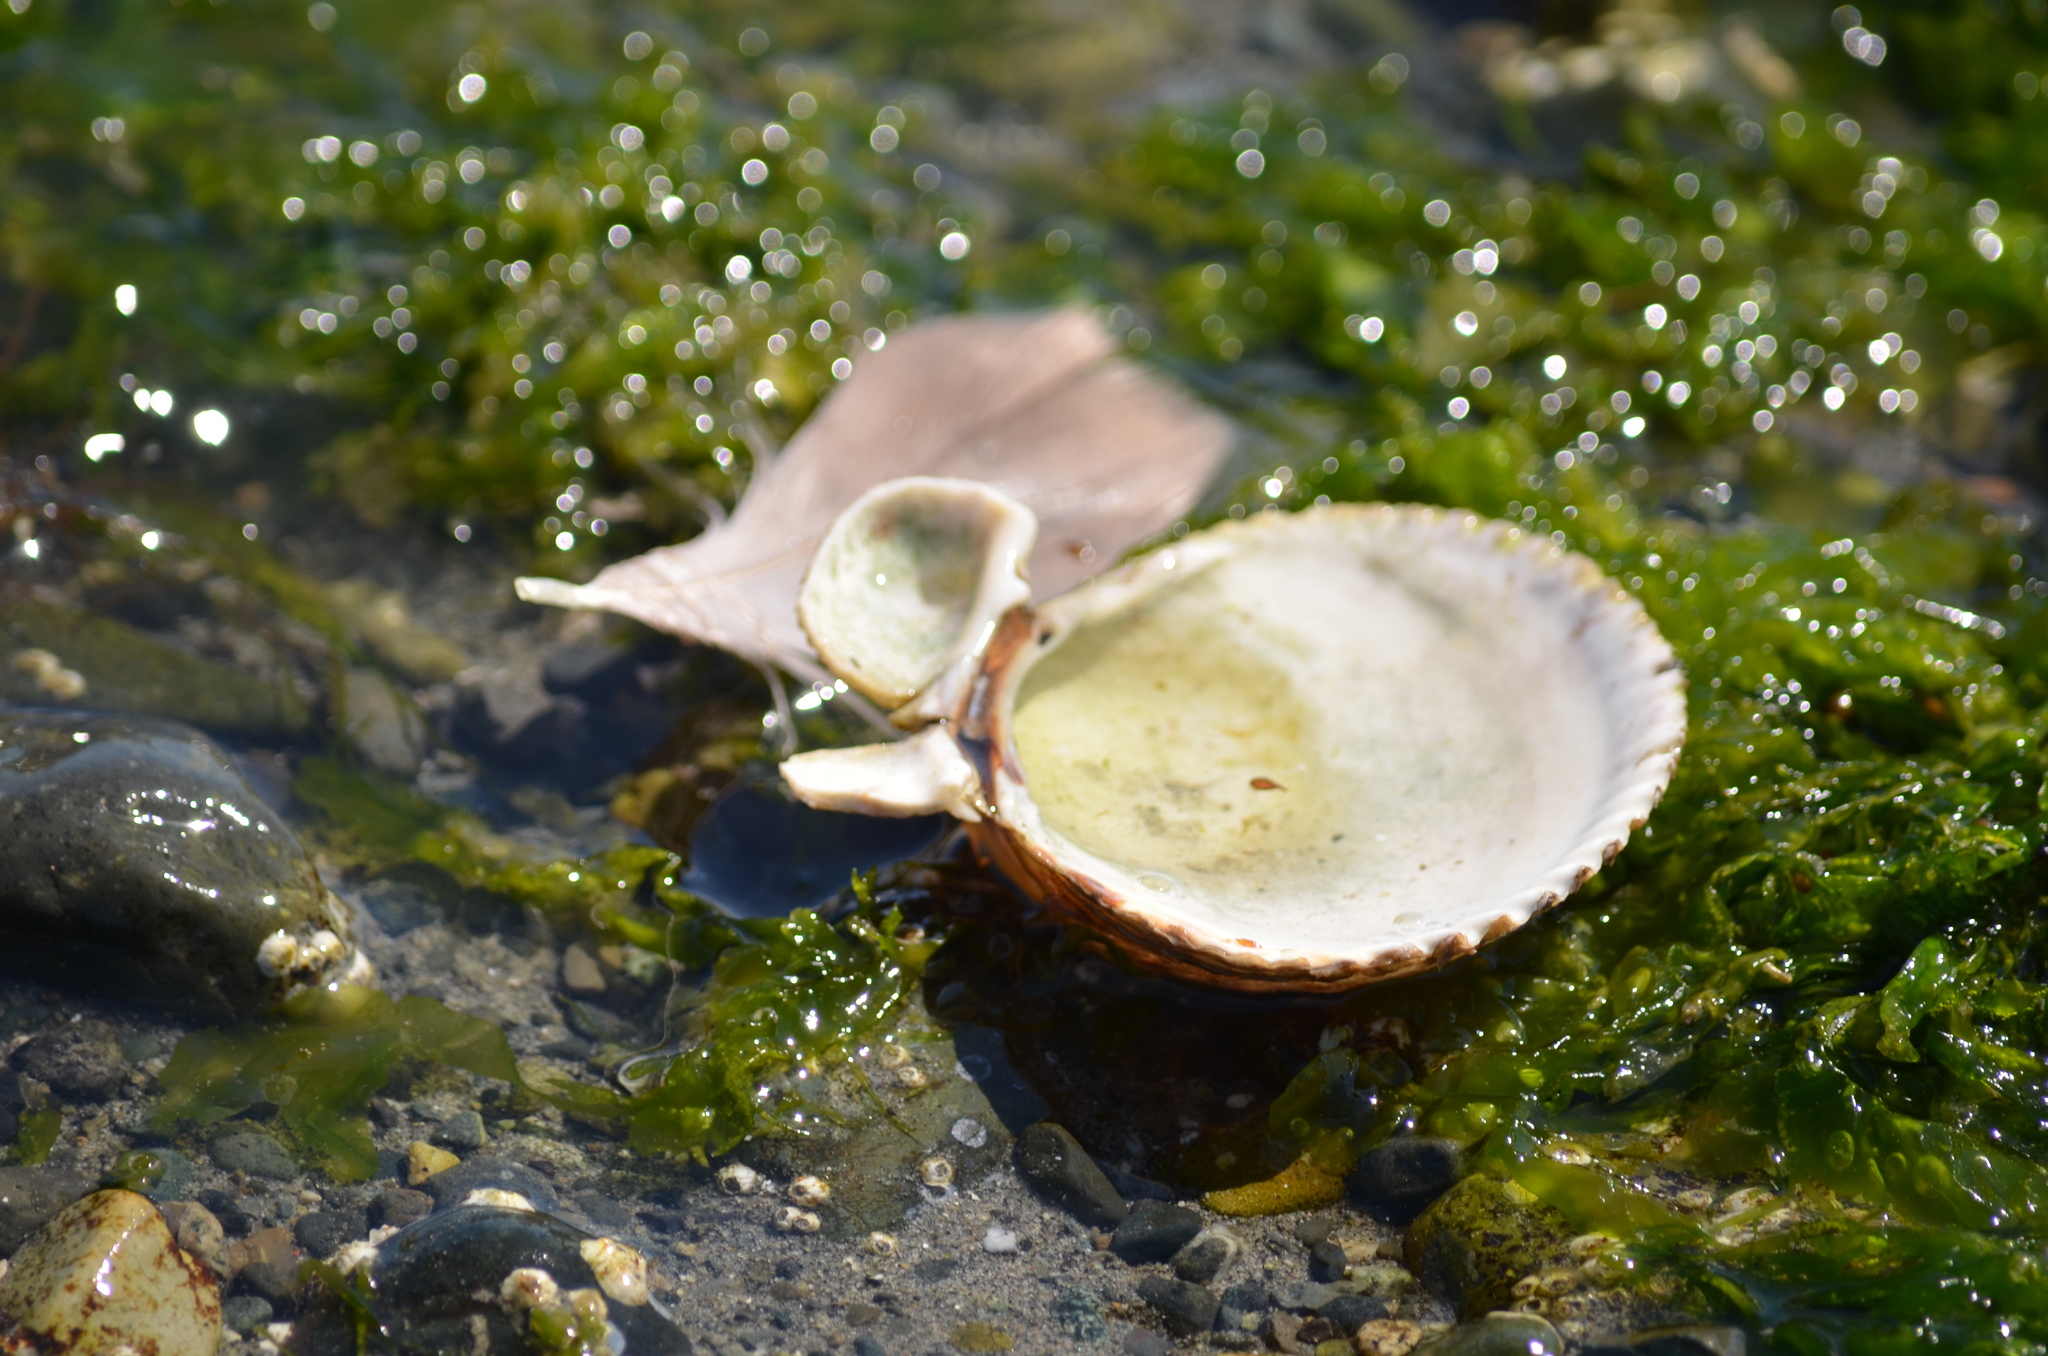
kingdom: Animalia
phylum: Mollusca
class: Bivalvia
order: Cardiida
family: Cardiidae
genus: Clinocardium
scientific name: Clinocardium nuttallii
